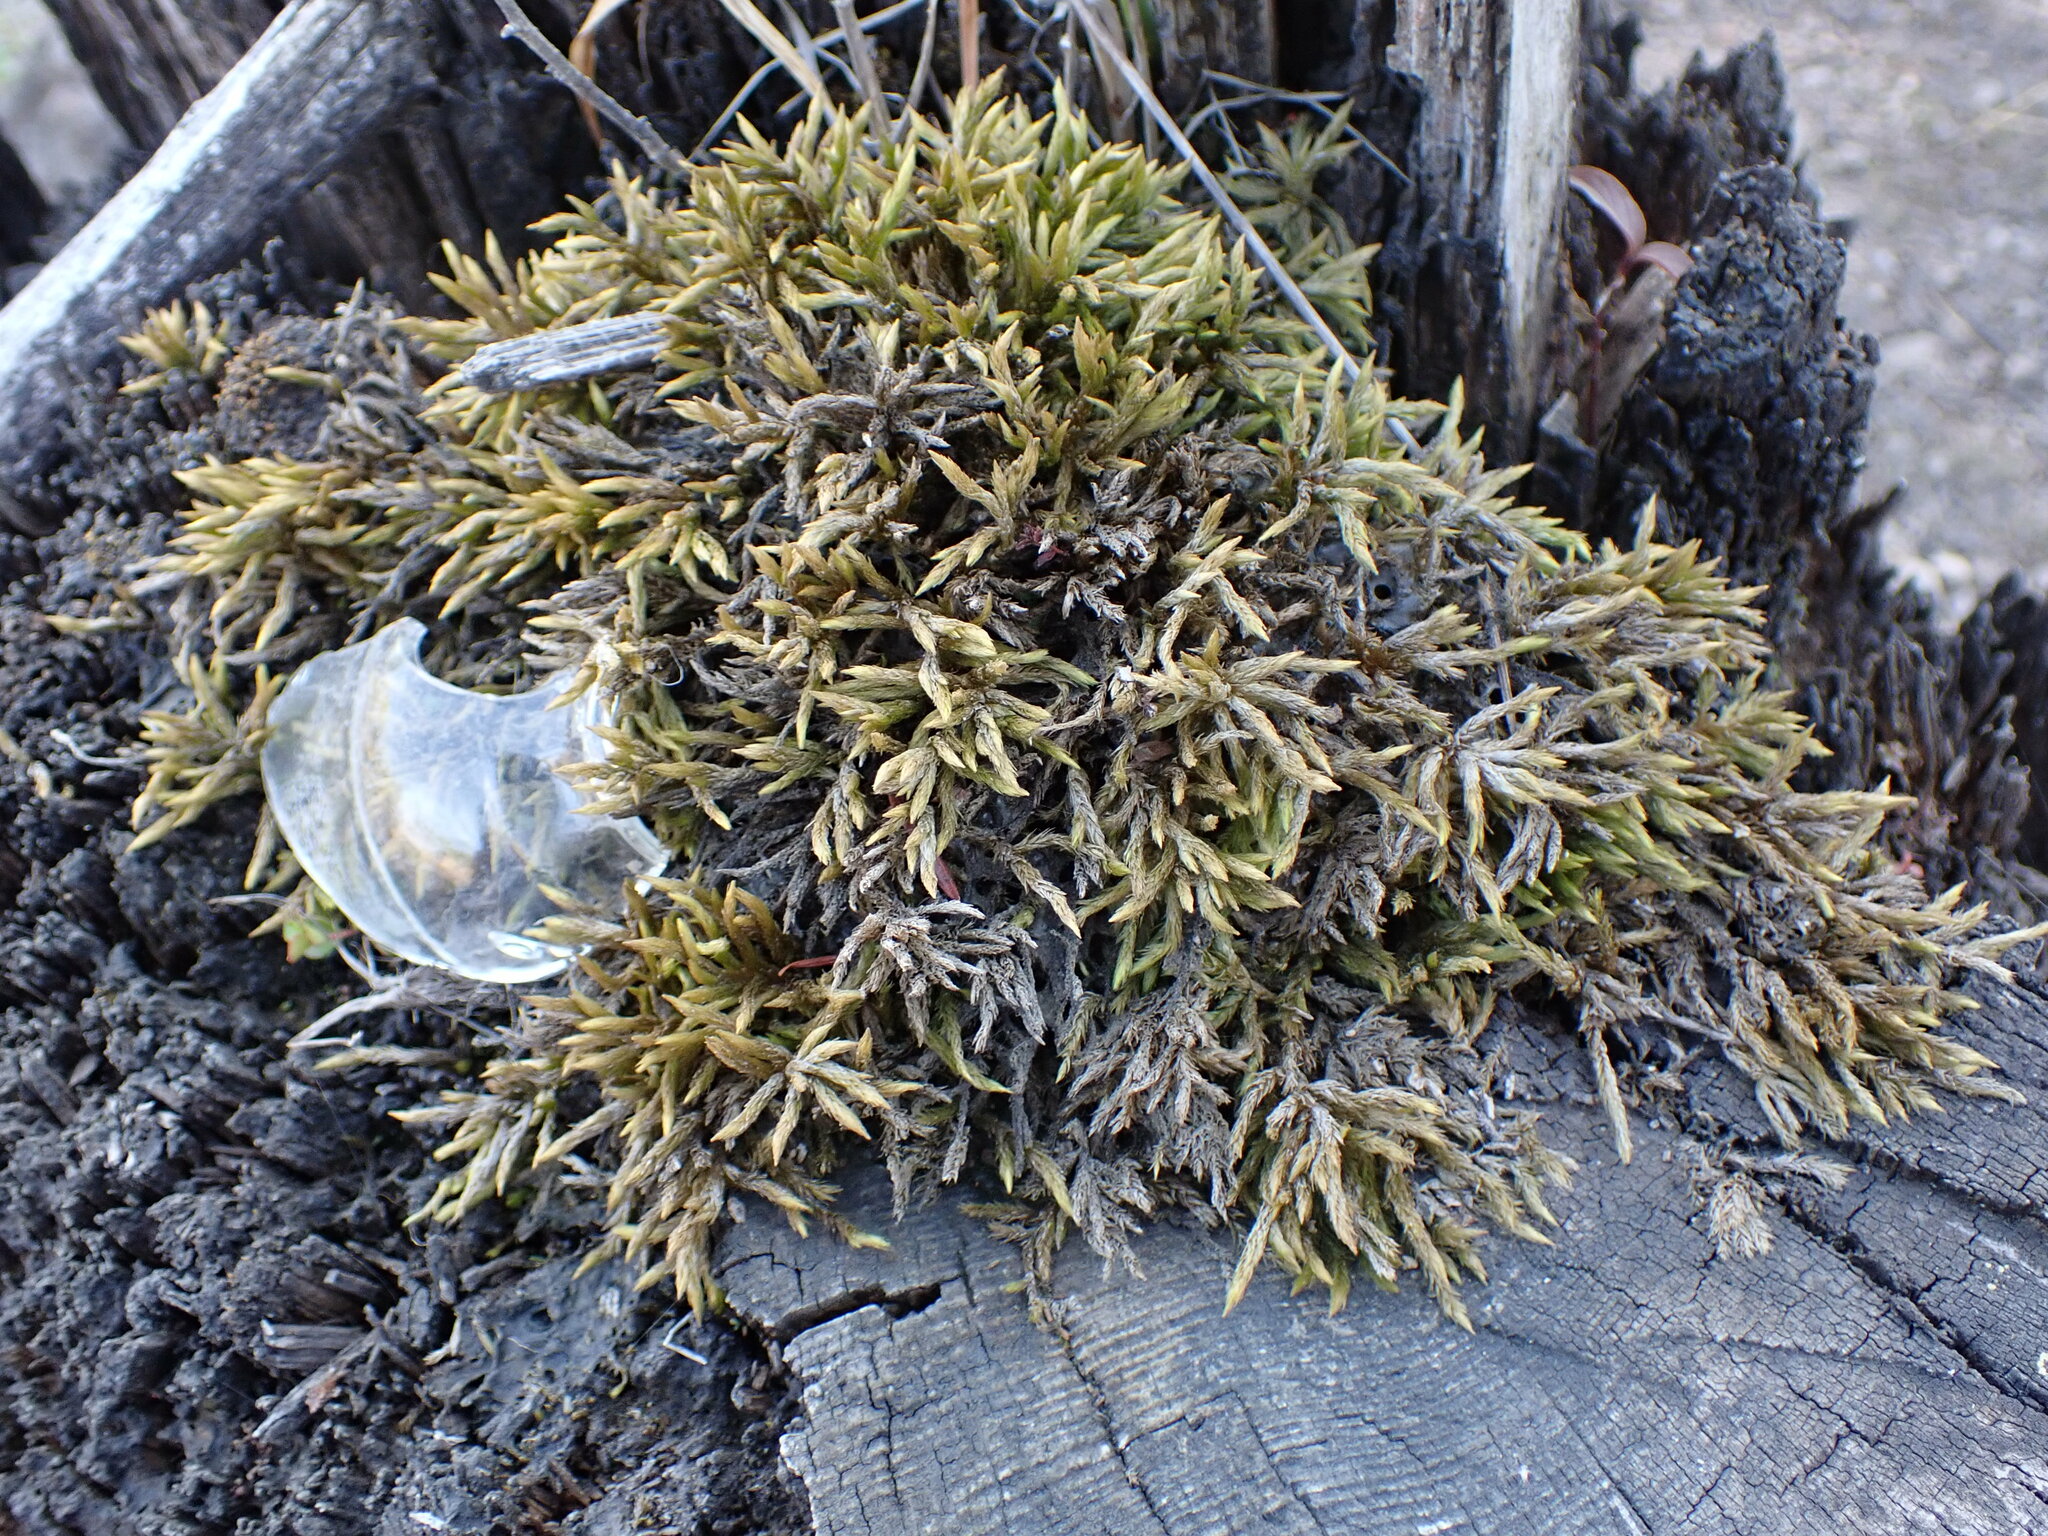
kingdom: Plantae
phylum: Bryophyta
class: Bryopsida
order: Hypnales
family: Climaciaceae
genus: Climacium
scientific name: Climacium dendroides
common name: Northern tree moss
